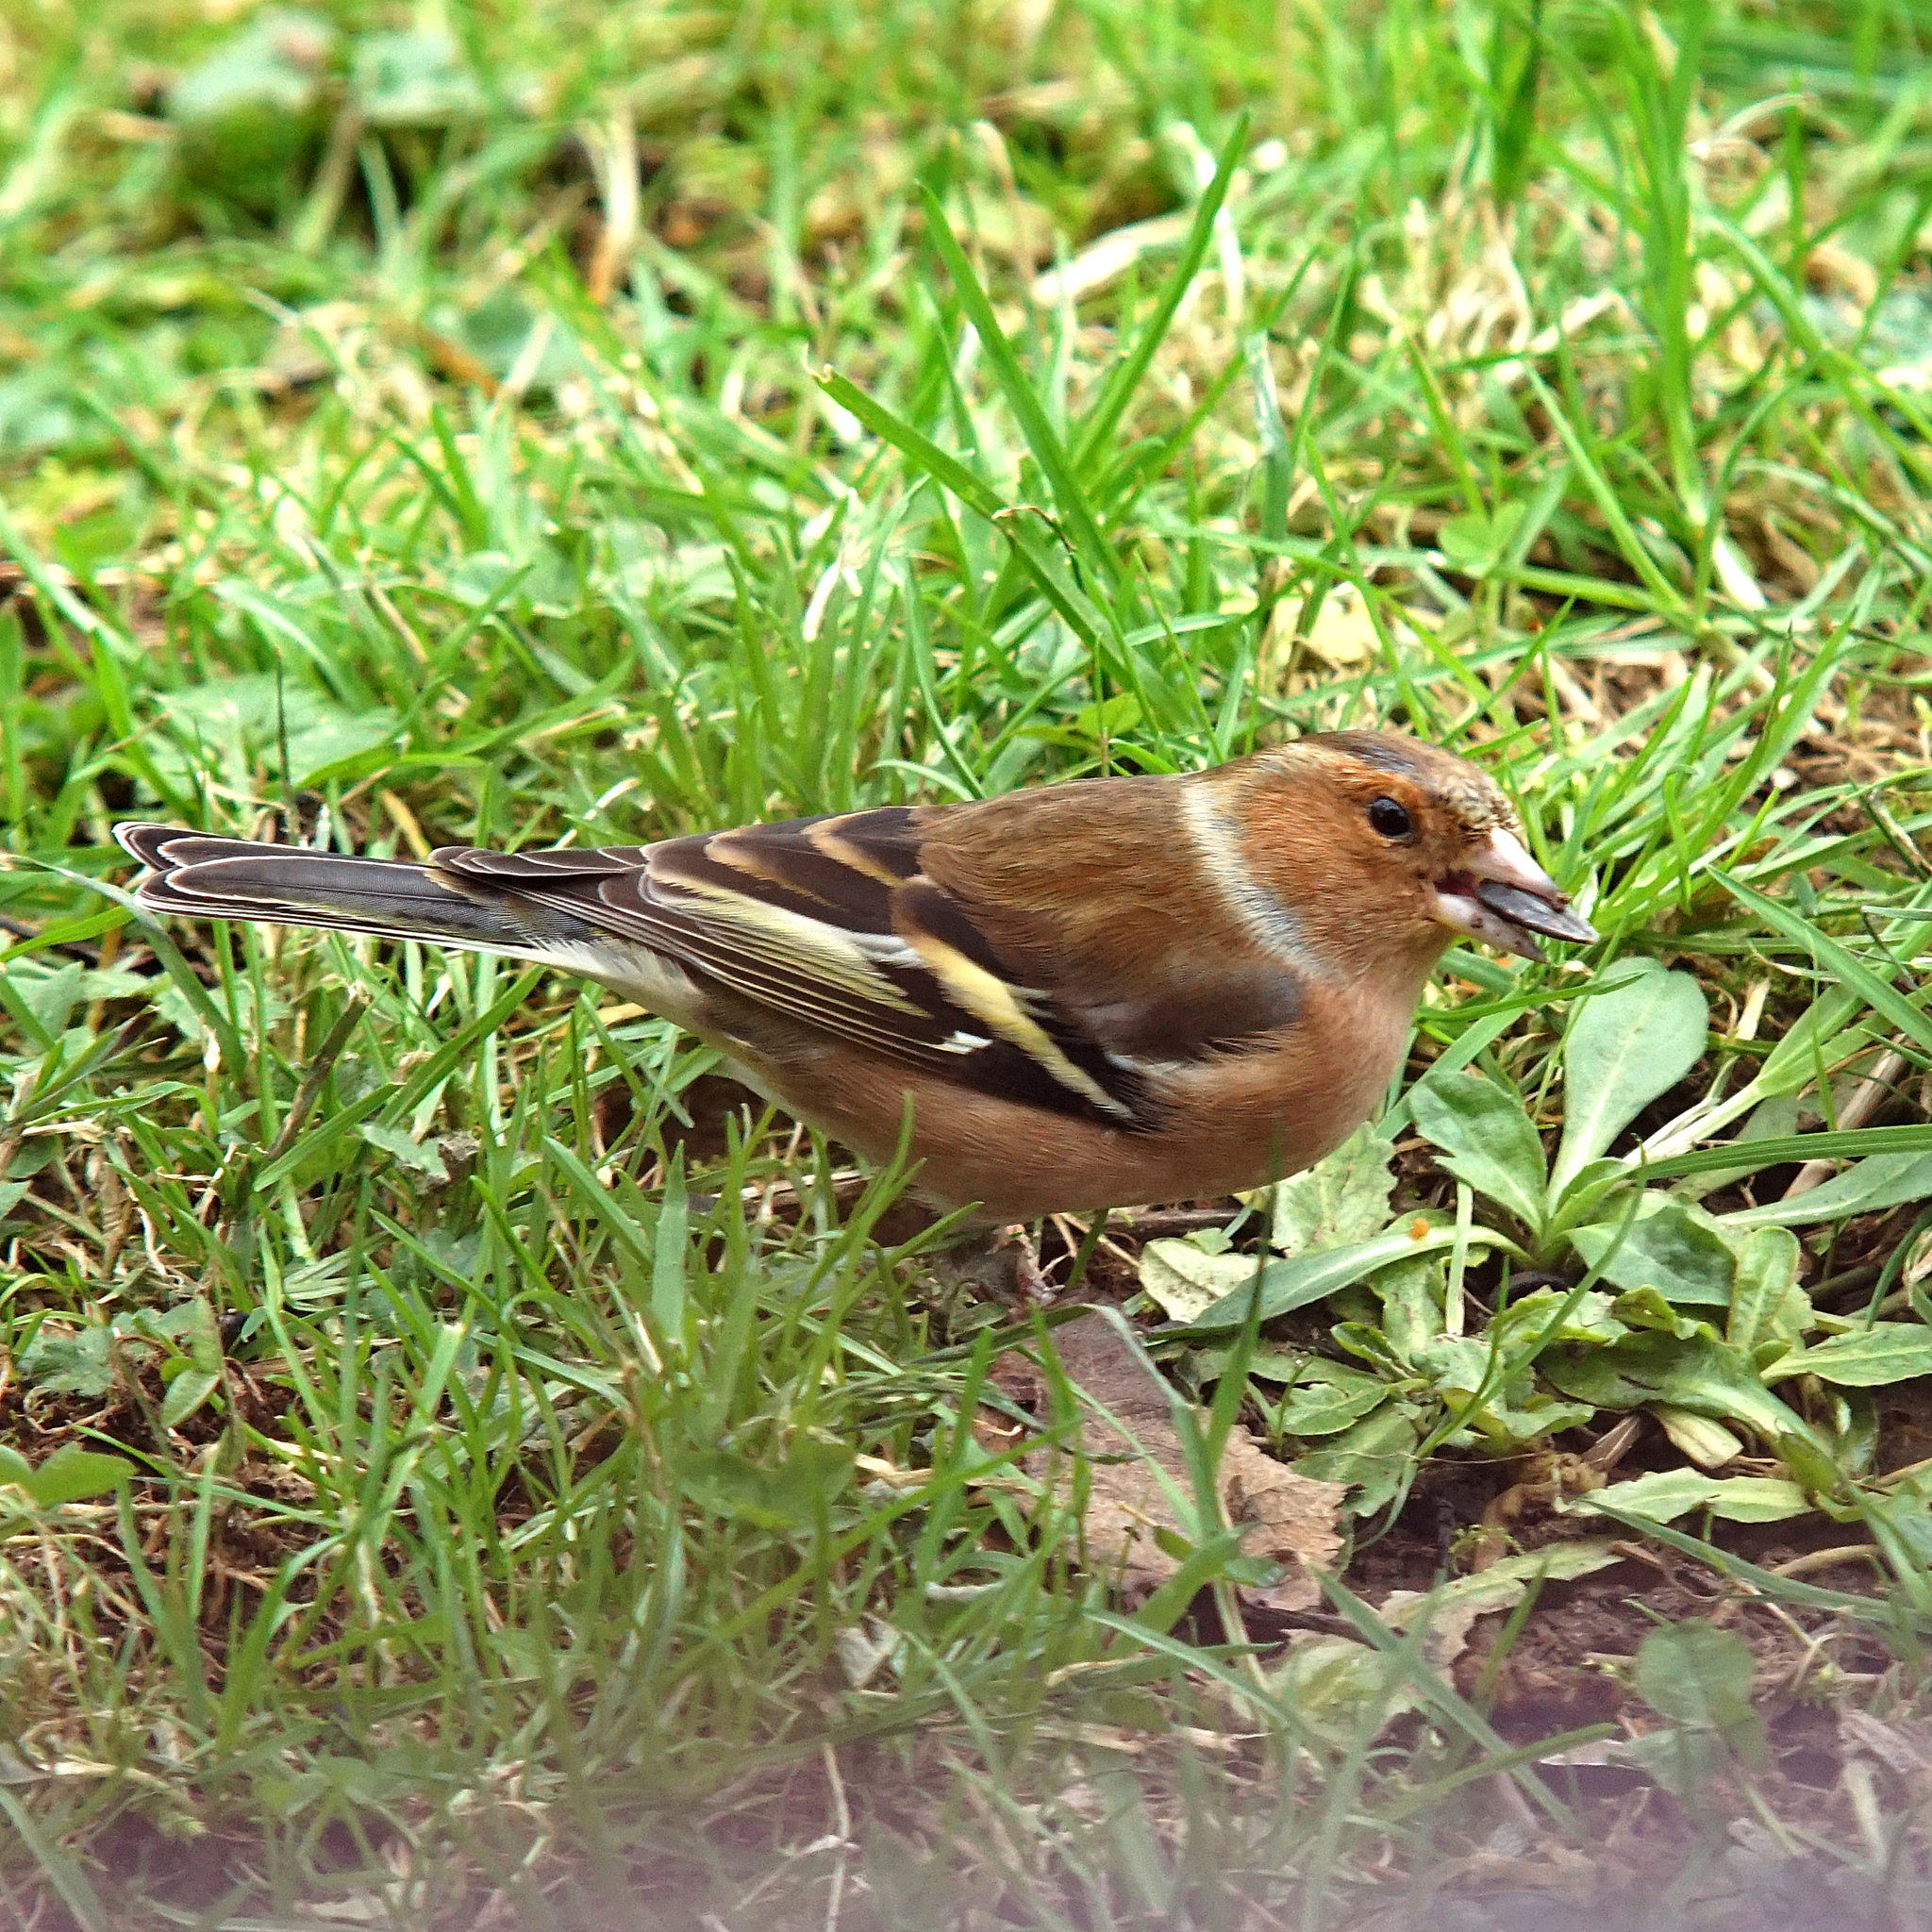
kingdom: Animalia
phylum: Chordata
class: Aves
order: Passeriformes
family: Fringillidae
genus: Fringilla
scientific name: Fringilla coelebs
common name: Common chaffinch
